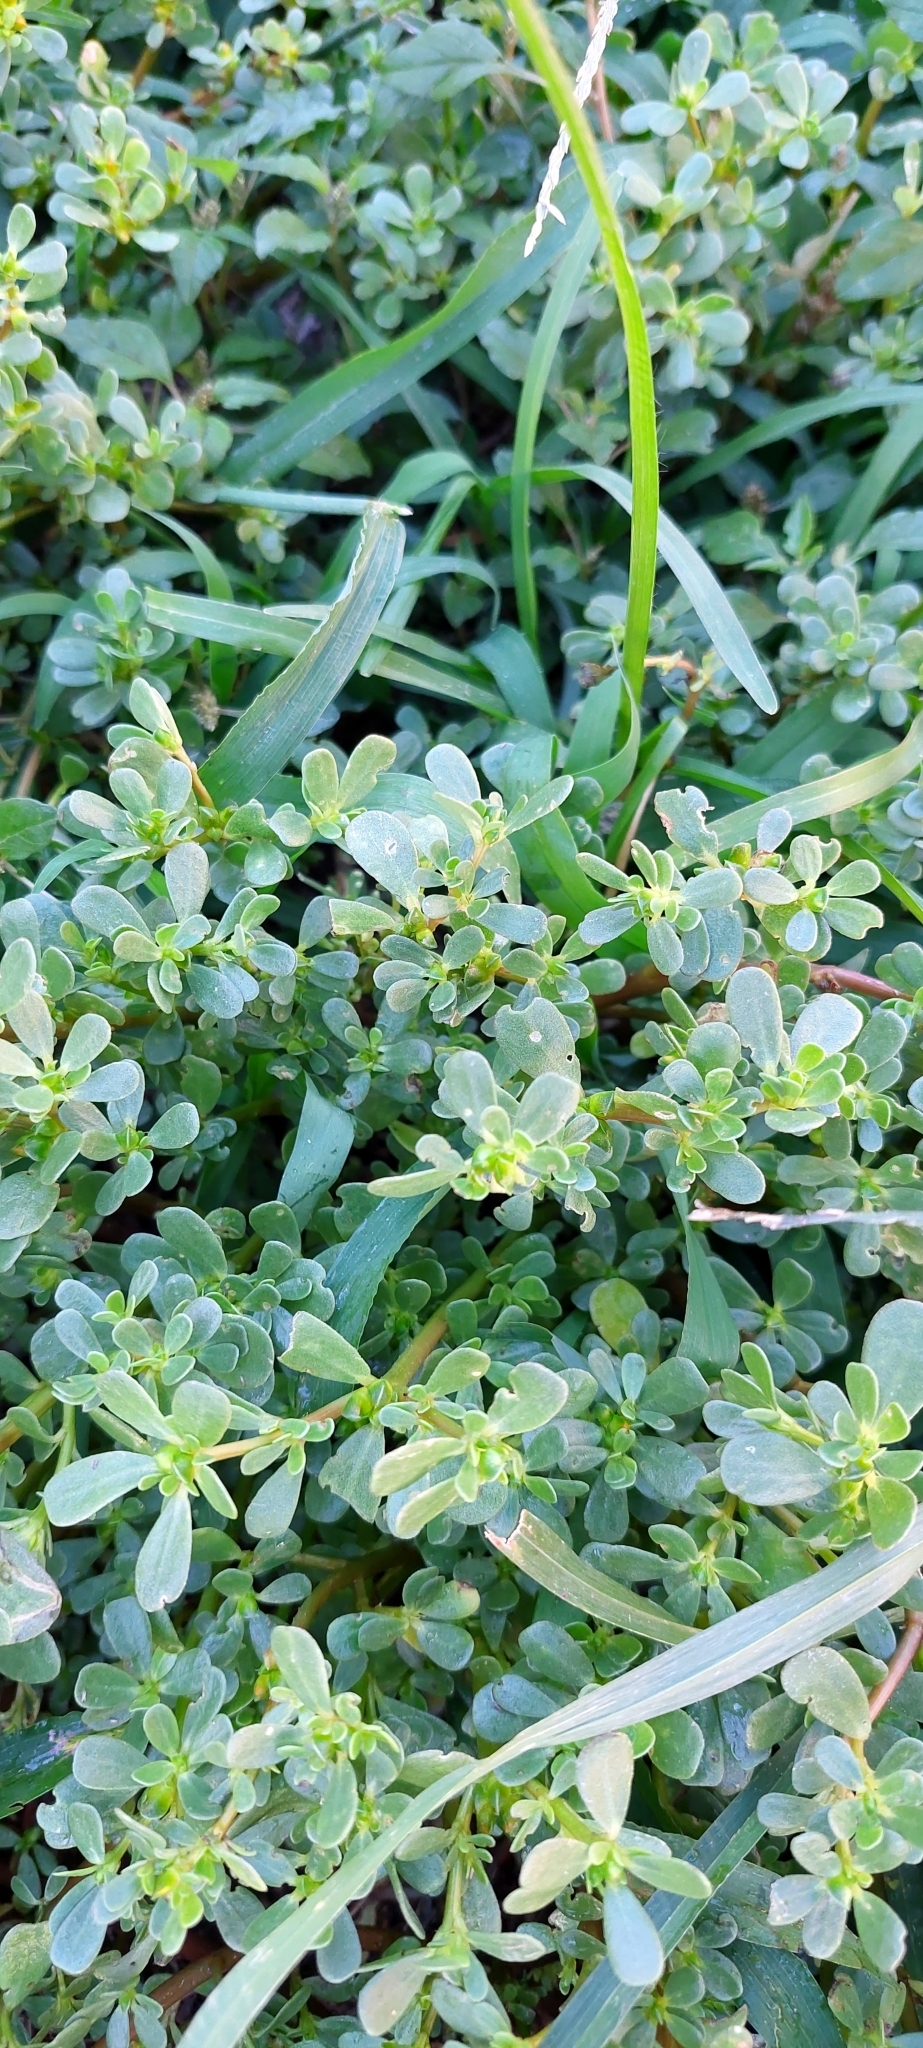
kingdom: Plantae
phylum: Tracheophyta
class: Magnoliopsida
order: Caryophyllales
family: Portulacaceae
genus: Portulaca
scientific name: Portulaca oleracea
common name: Common purslane
